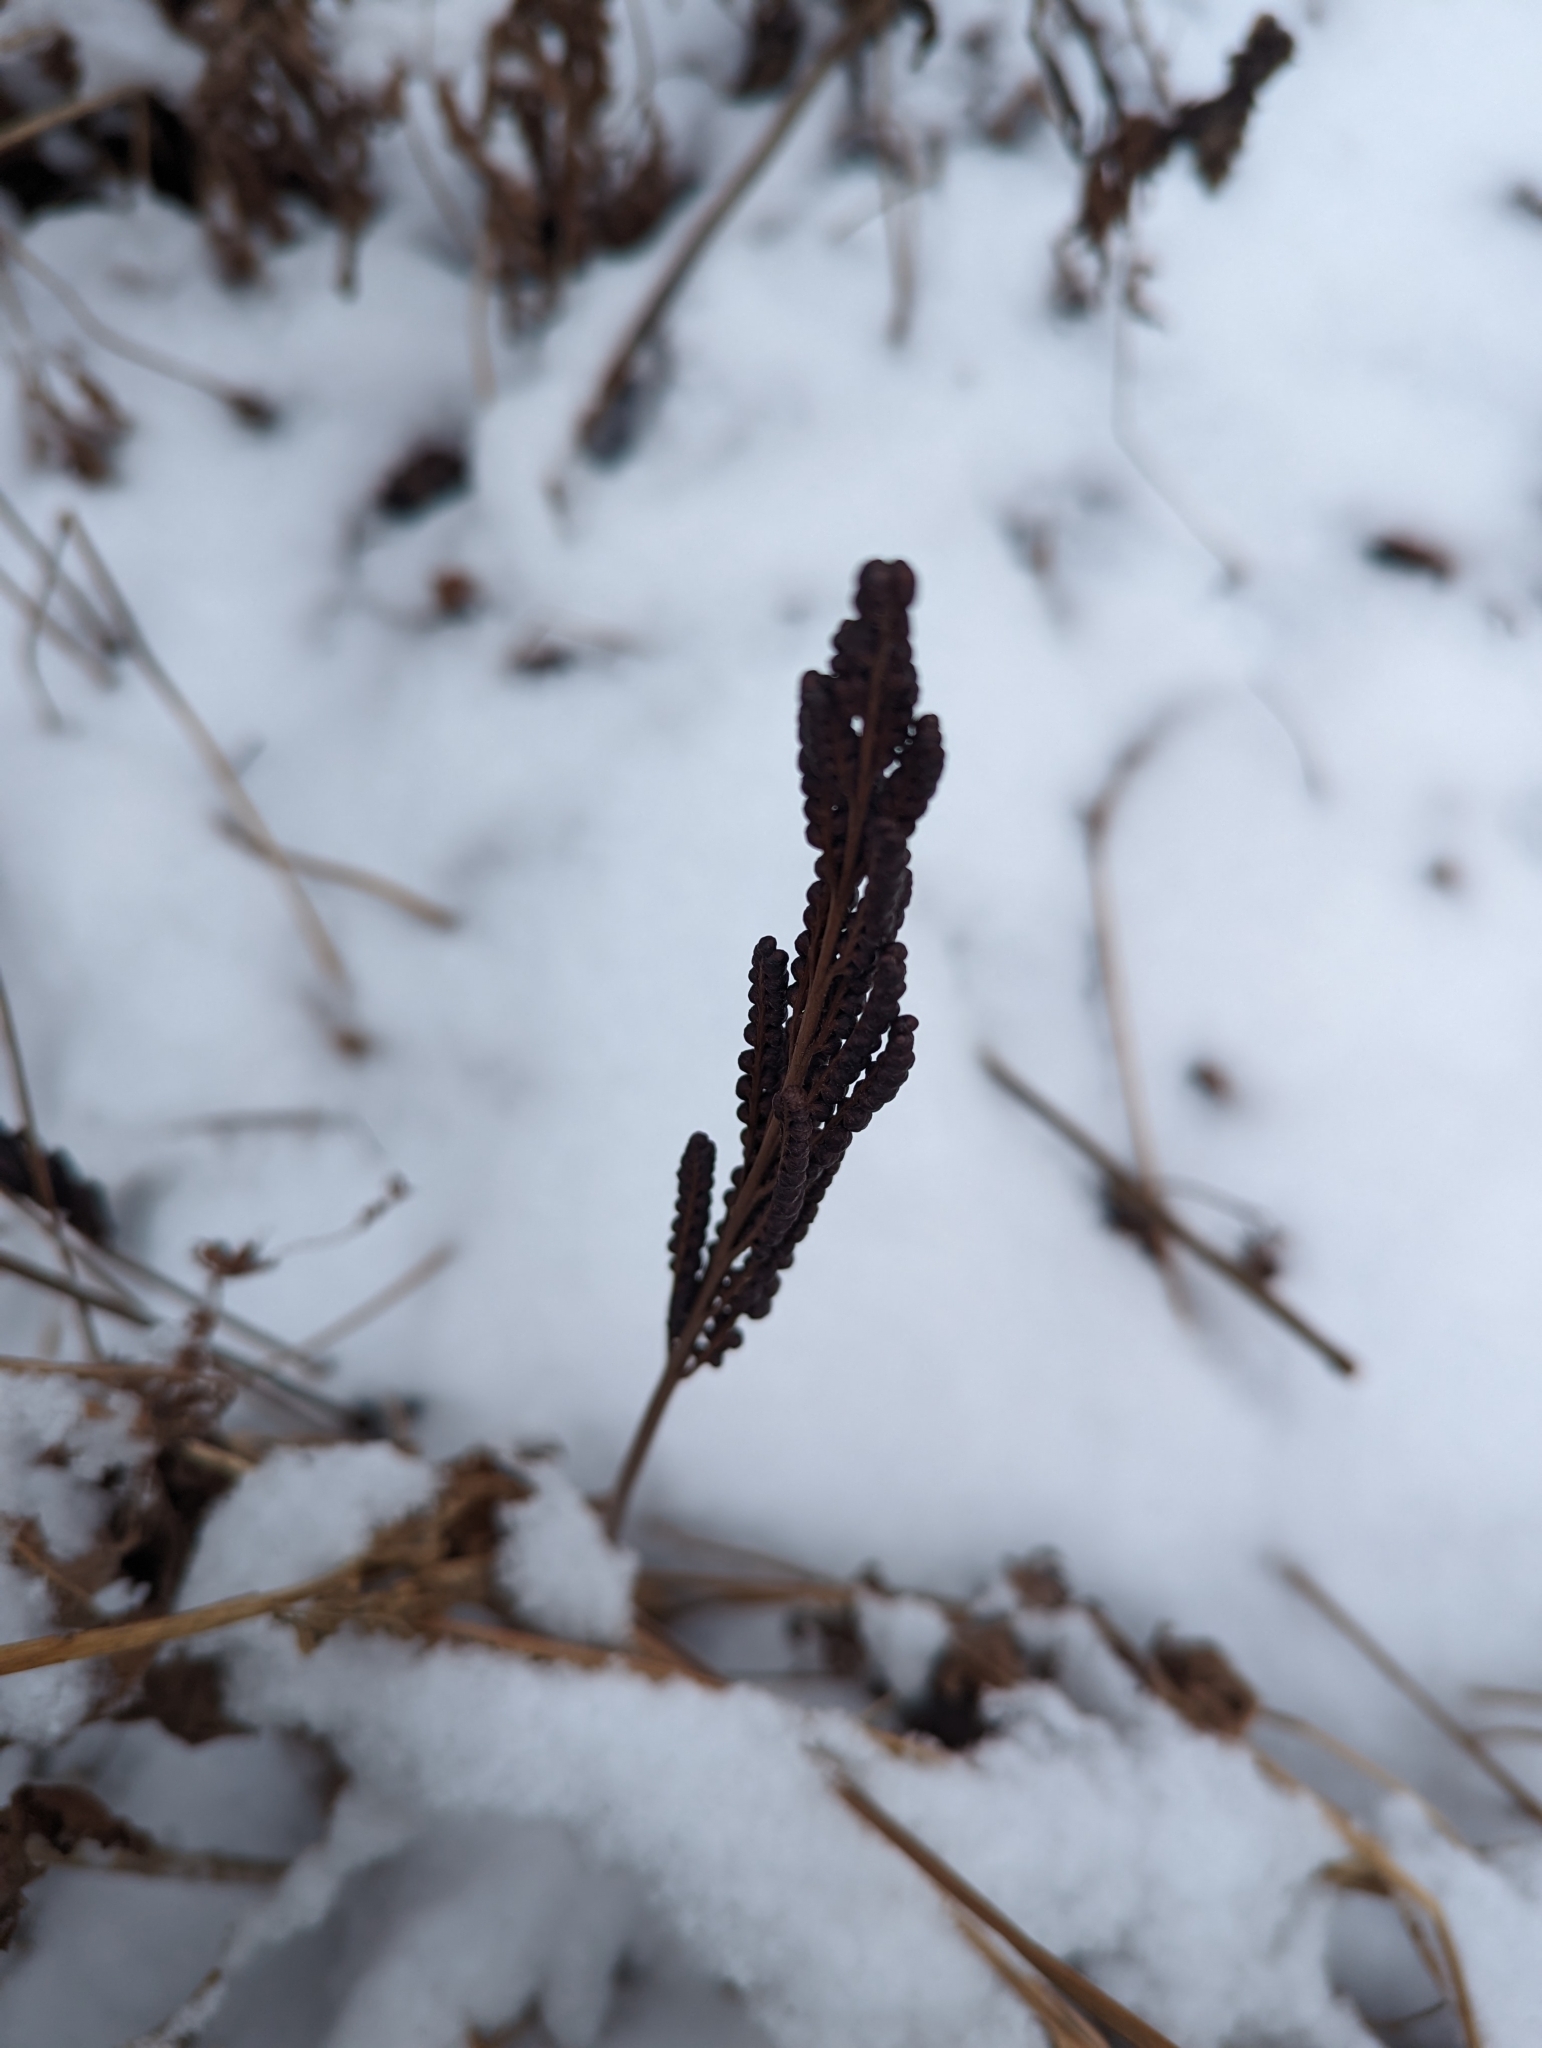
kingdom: Plantae
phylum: Tracheophyta
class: Polypodiopsida
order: Polypodiales
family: Onocleaceae
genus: Onoclea
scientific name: Onoclea sensibilis
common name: Sensitive fern
